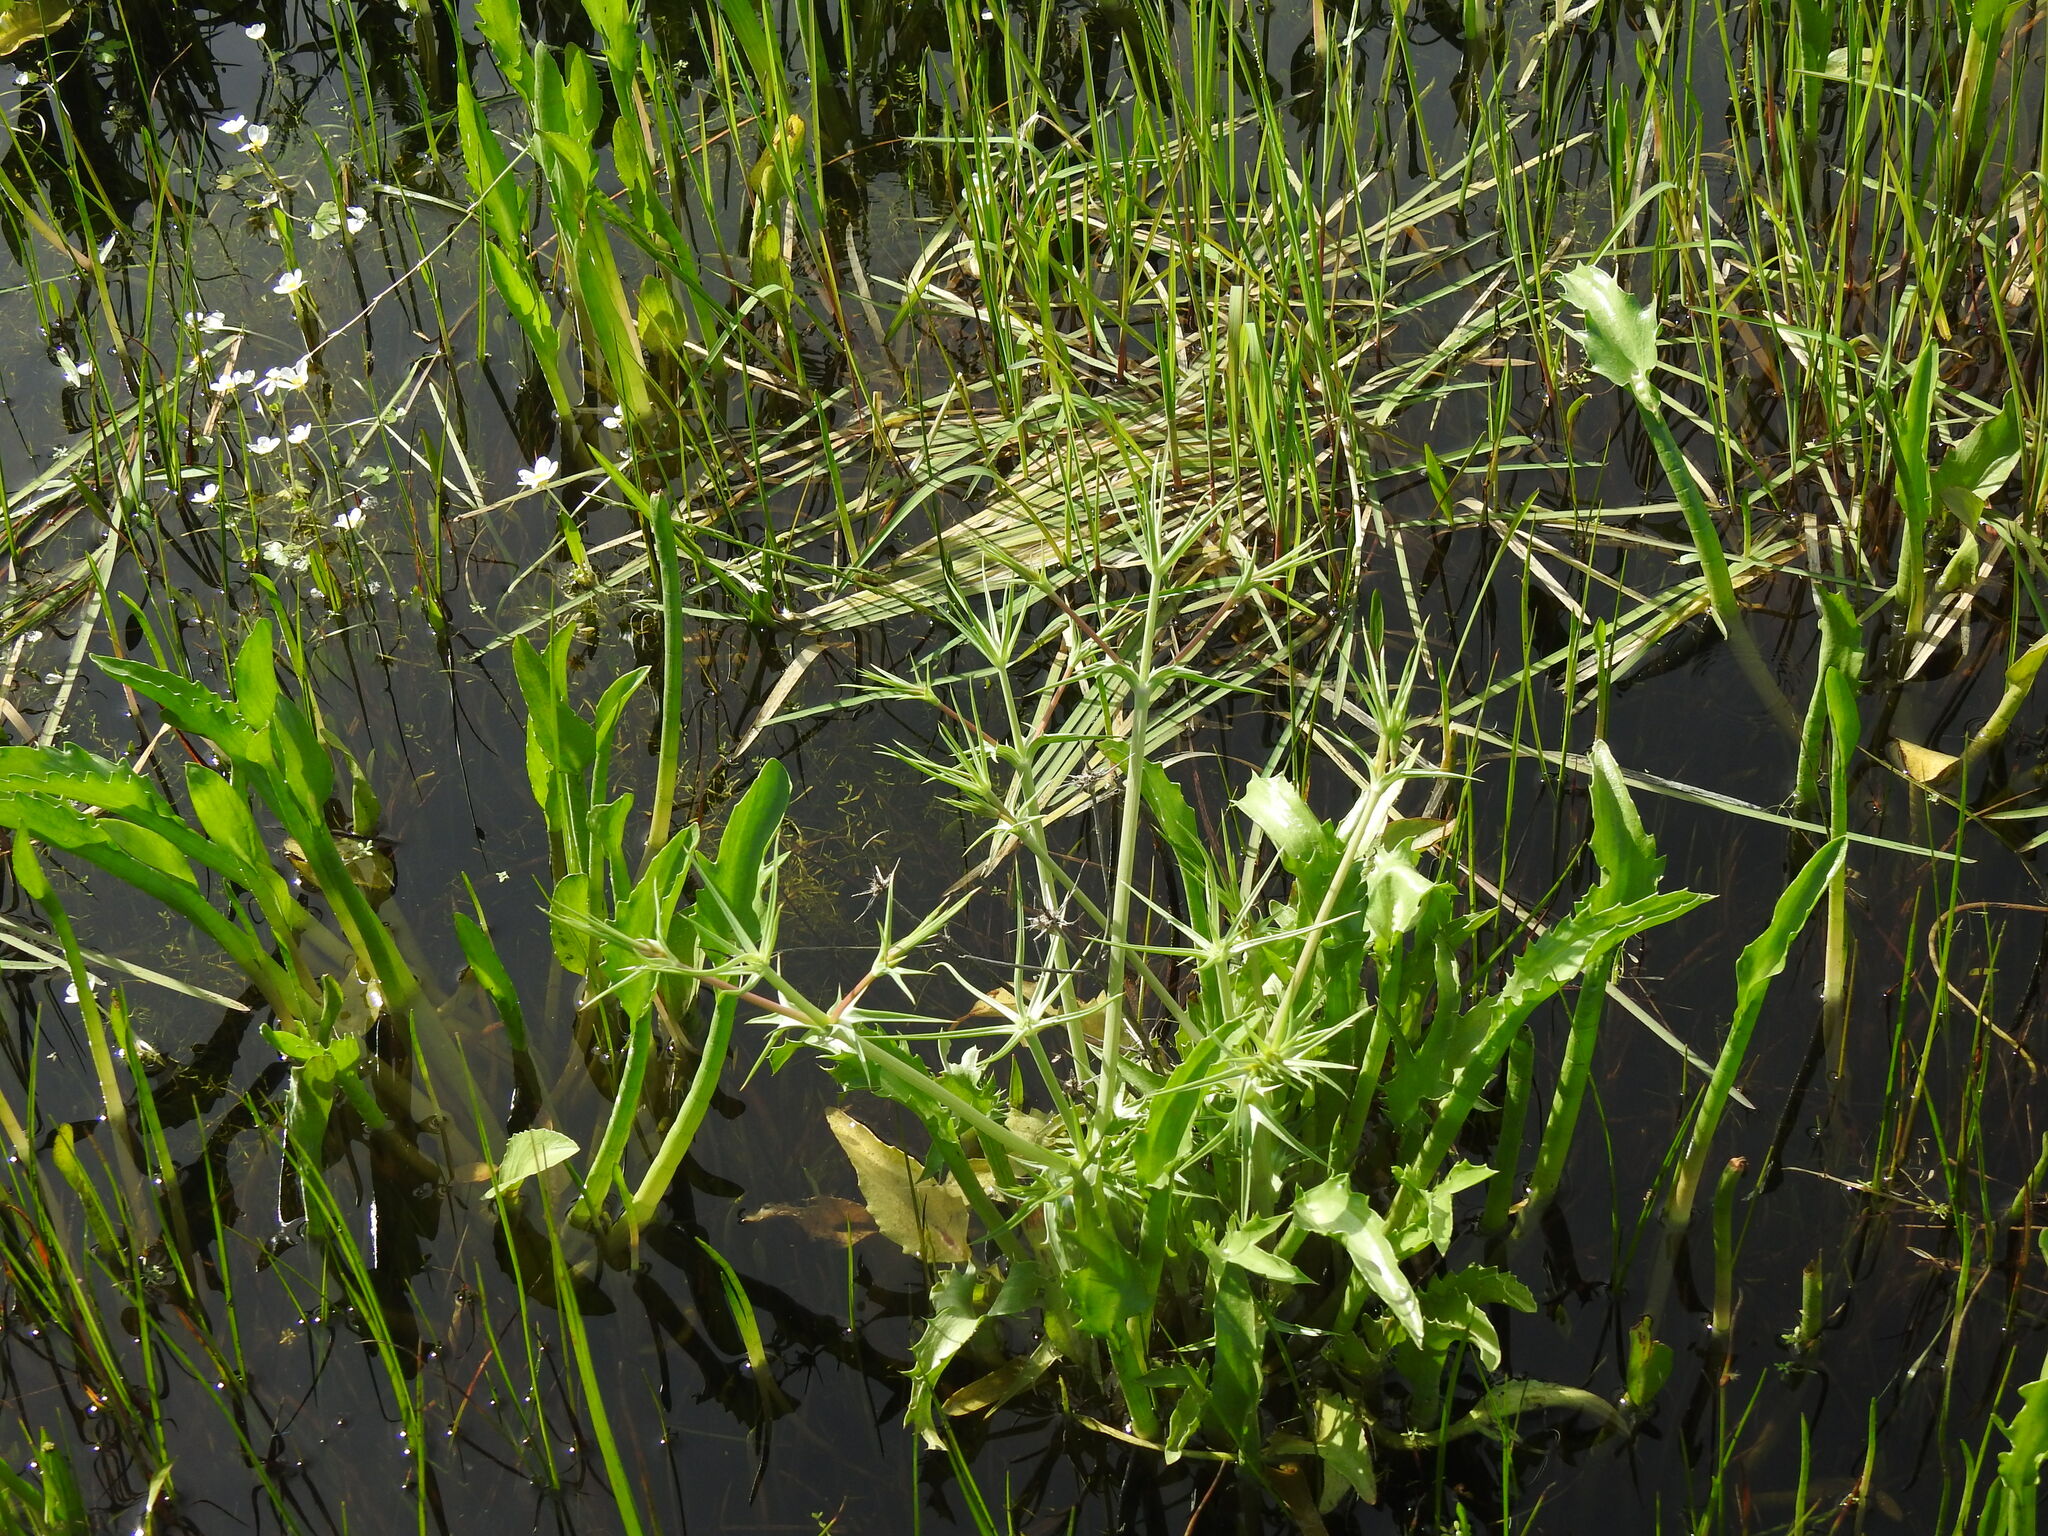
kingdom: Plantae
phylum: Tracheophyta
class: Magnoliopsida
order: Apiales
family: Apiaceae
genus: Eryngium
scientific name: Eryngium corniculatum
